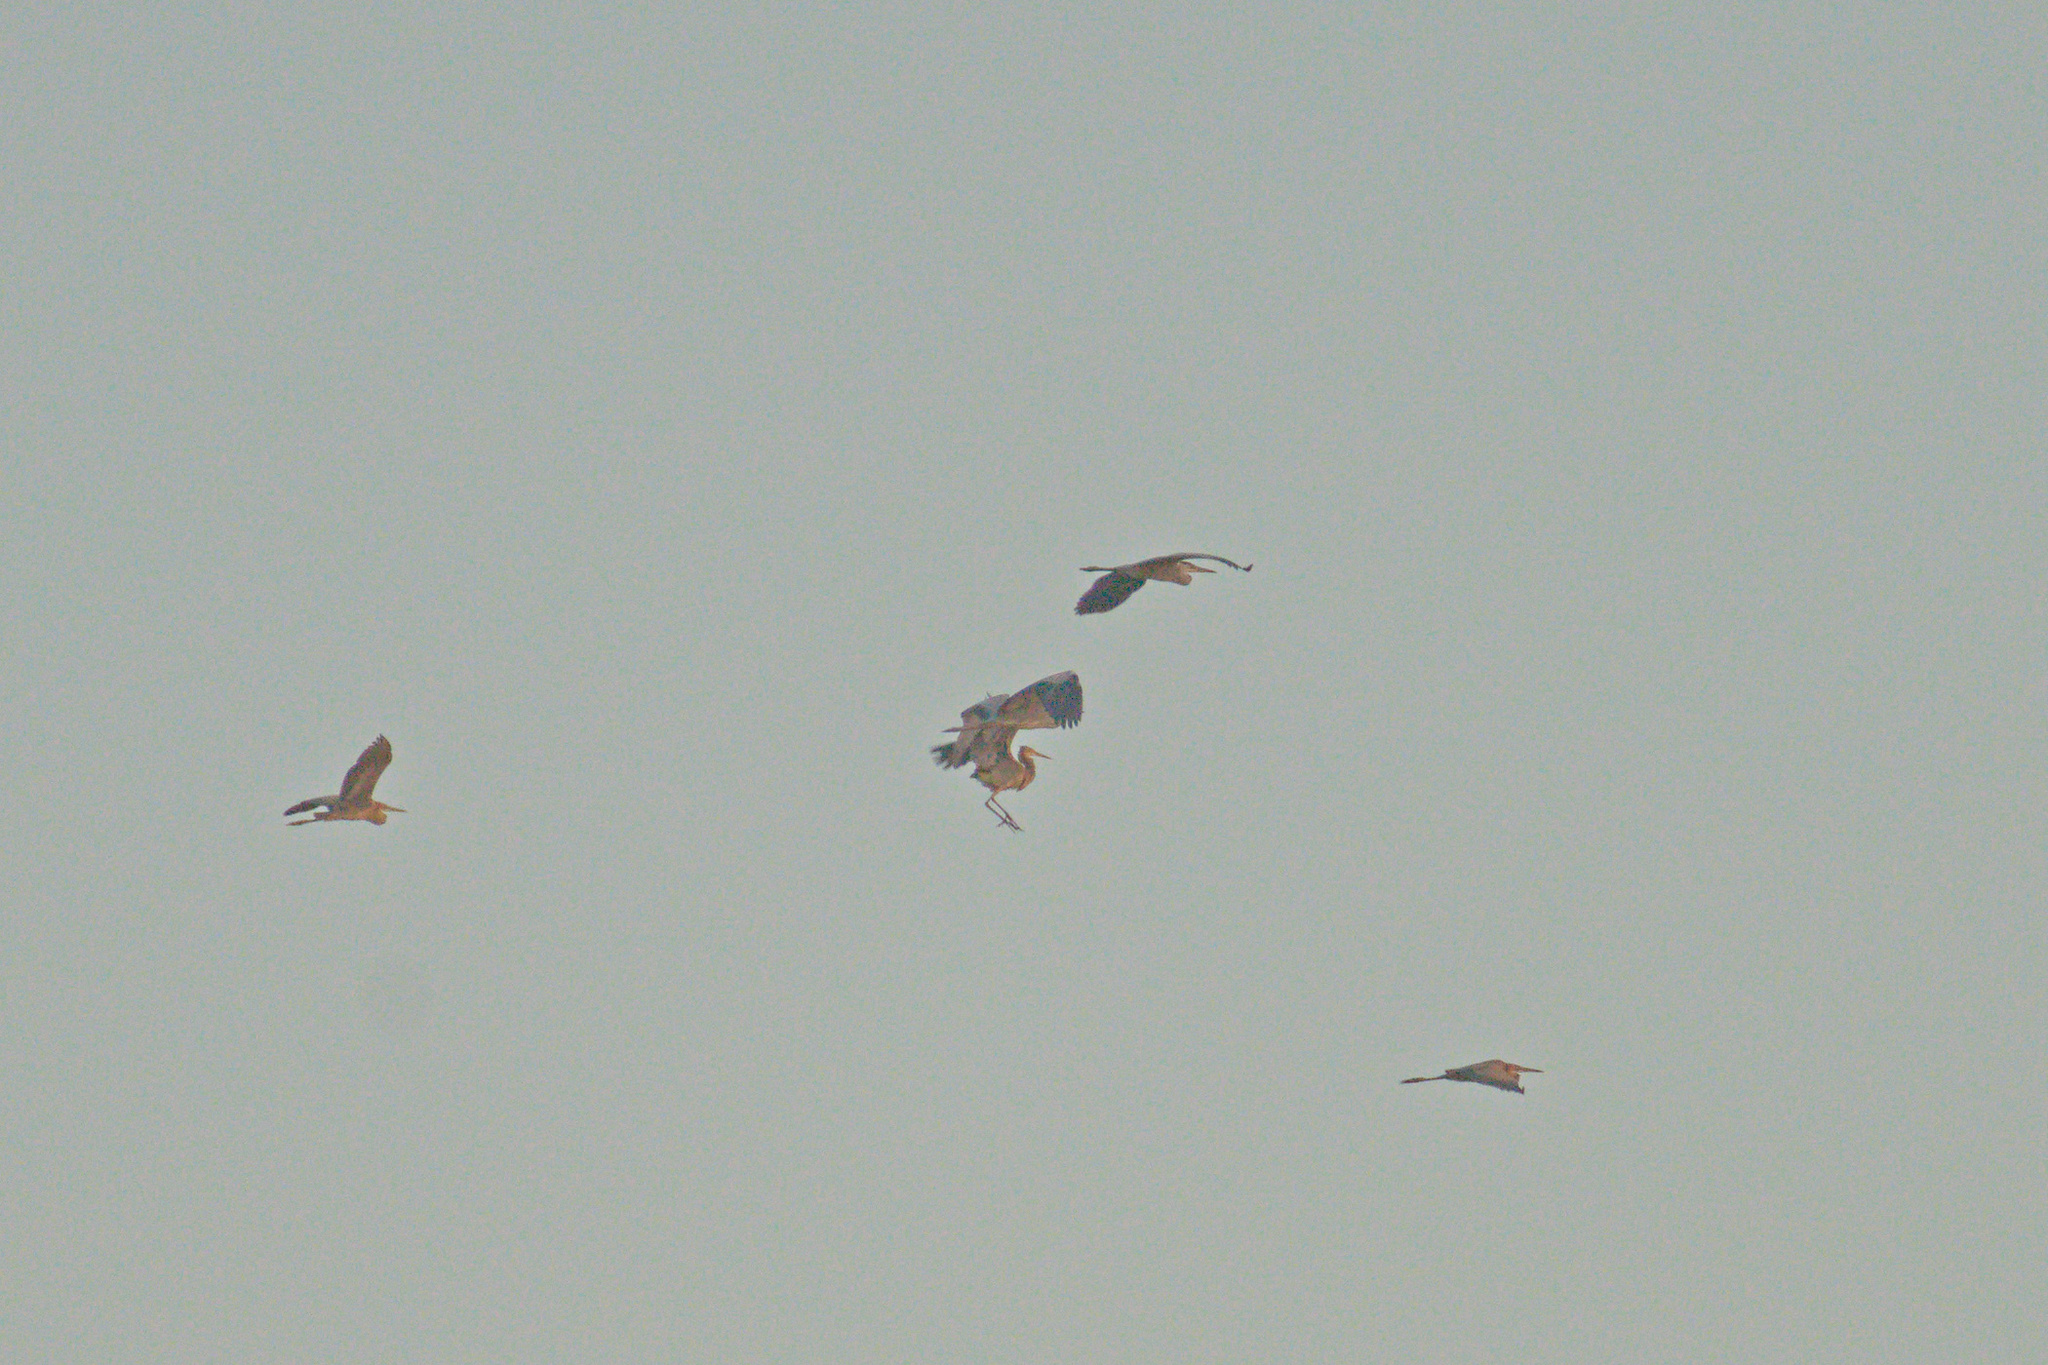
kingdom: Animalia
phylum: Chordata
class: Aves
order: Pelecaniformes
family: Ardeidae
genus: Ardea
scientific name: Ardea purpurea
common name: Purple heron
